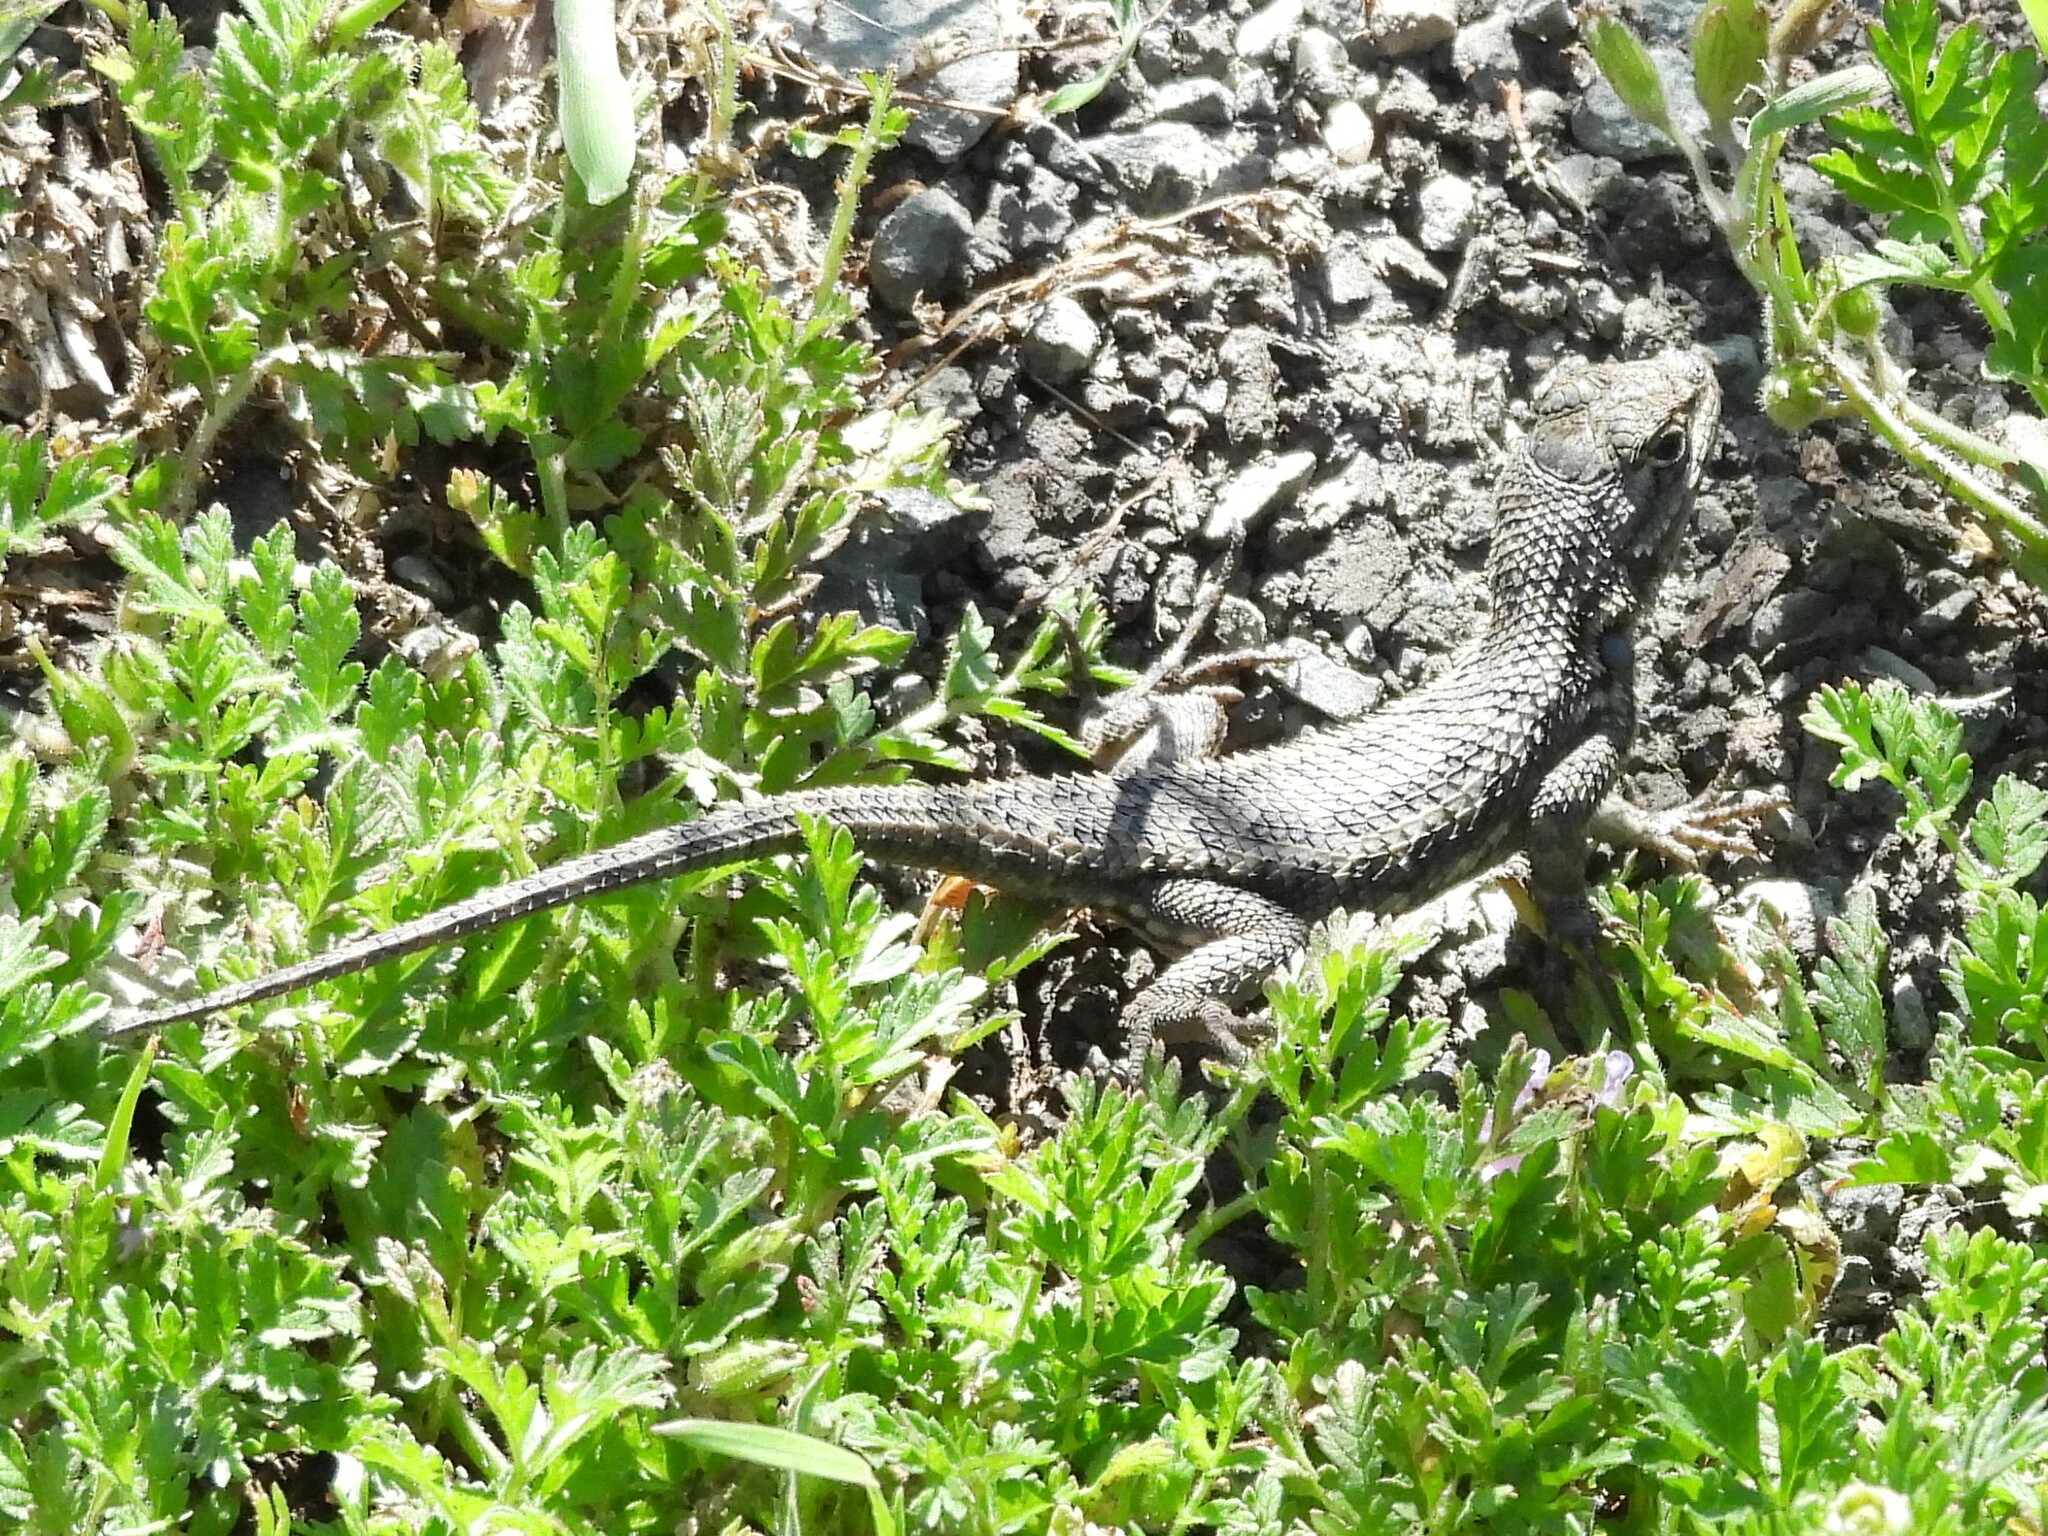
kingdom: Animalia
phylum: Chordata
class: Squamata
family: Phrynosomatidae
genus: Sceloporus
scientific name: Sceloporus occidentalis
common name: Western fence lizard
